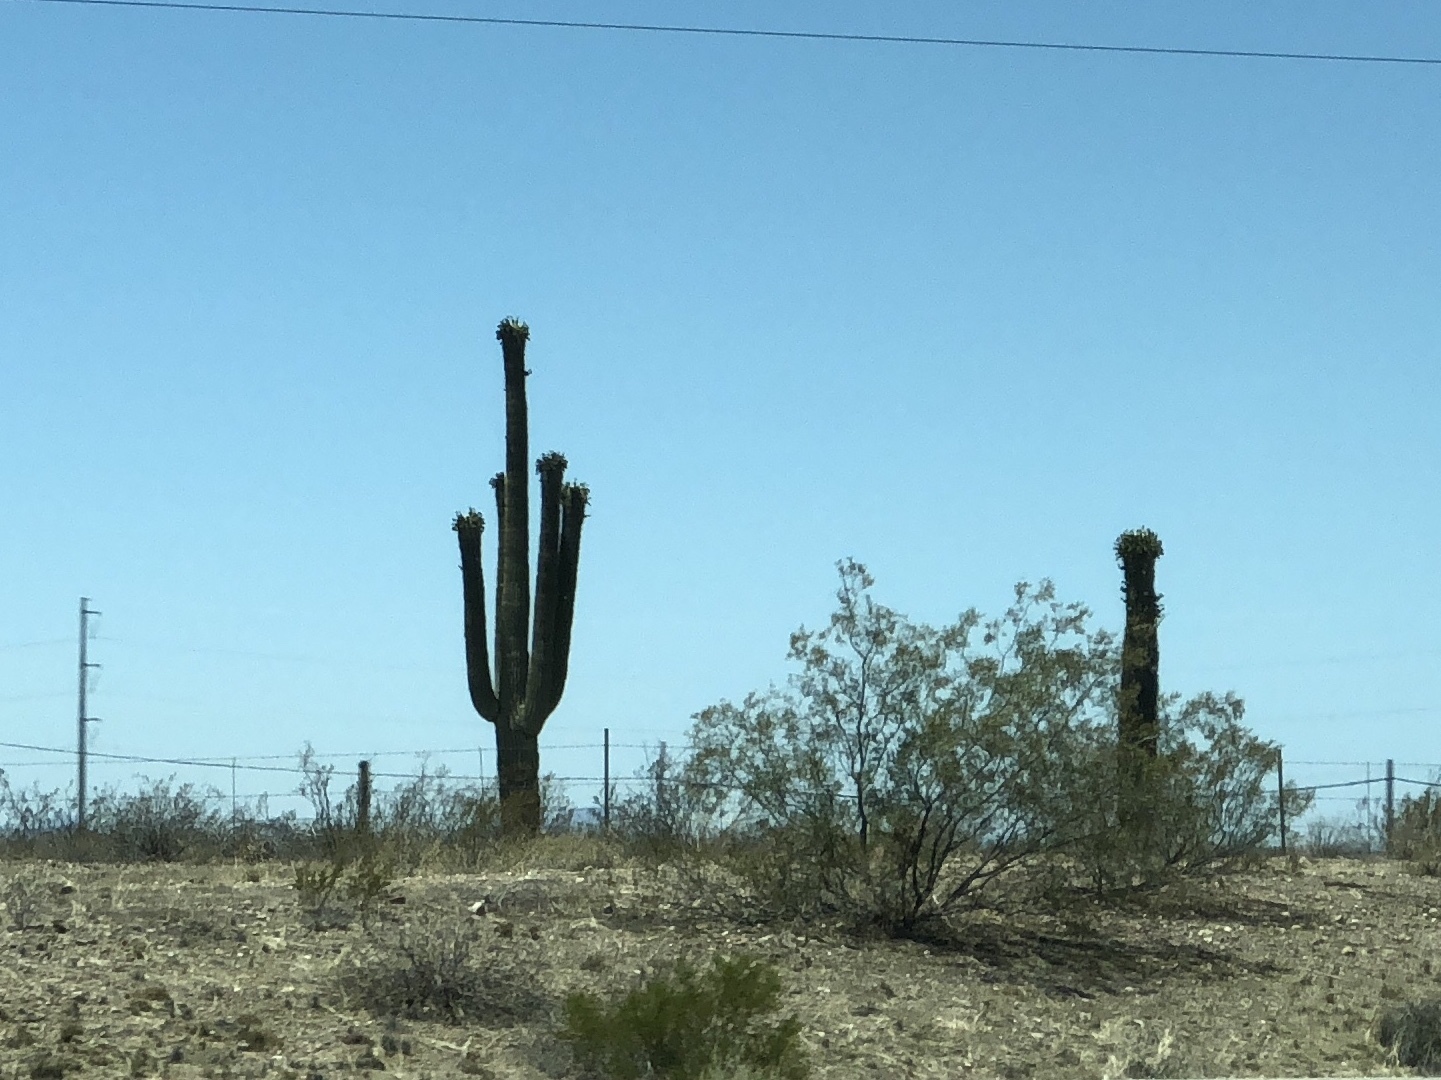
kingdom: Plantae
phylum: Tracheophyta
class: Magnoliopsida
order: Caryophyllales
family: Cactaceae
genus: Carnegiea
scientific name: Carnegiea gigantea
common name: Saguaro
